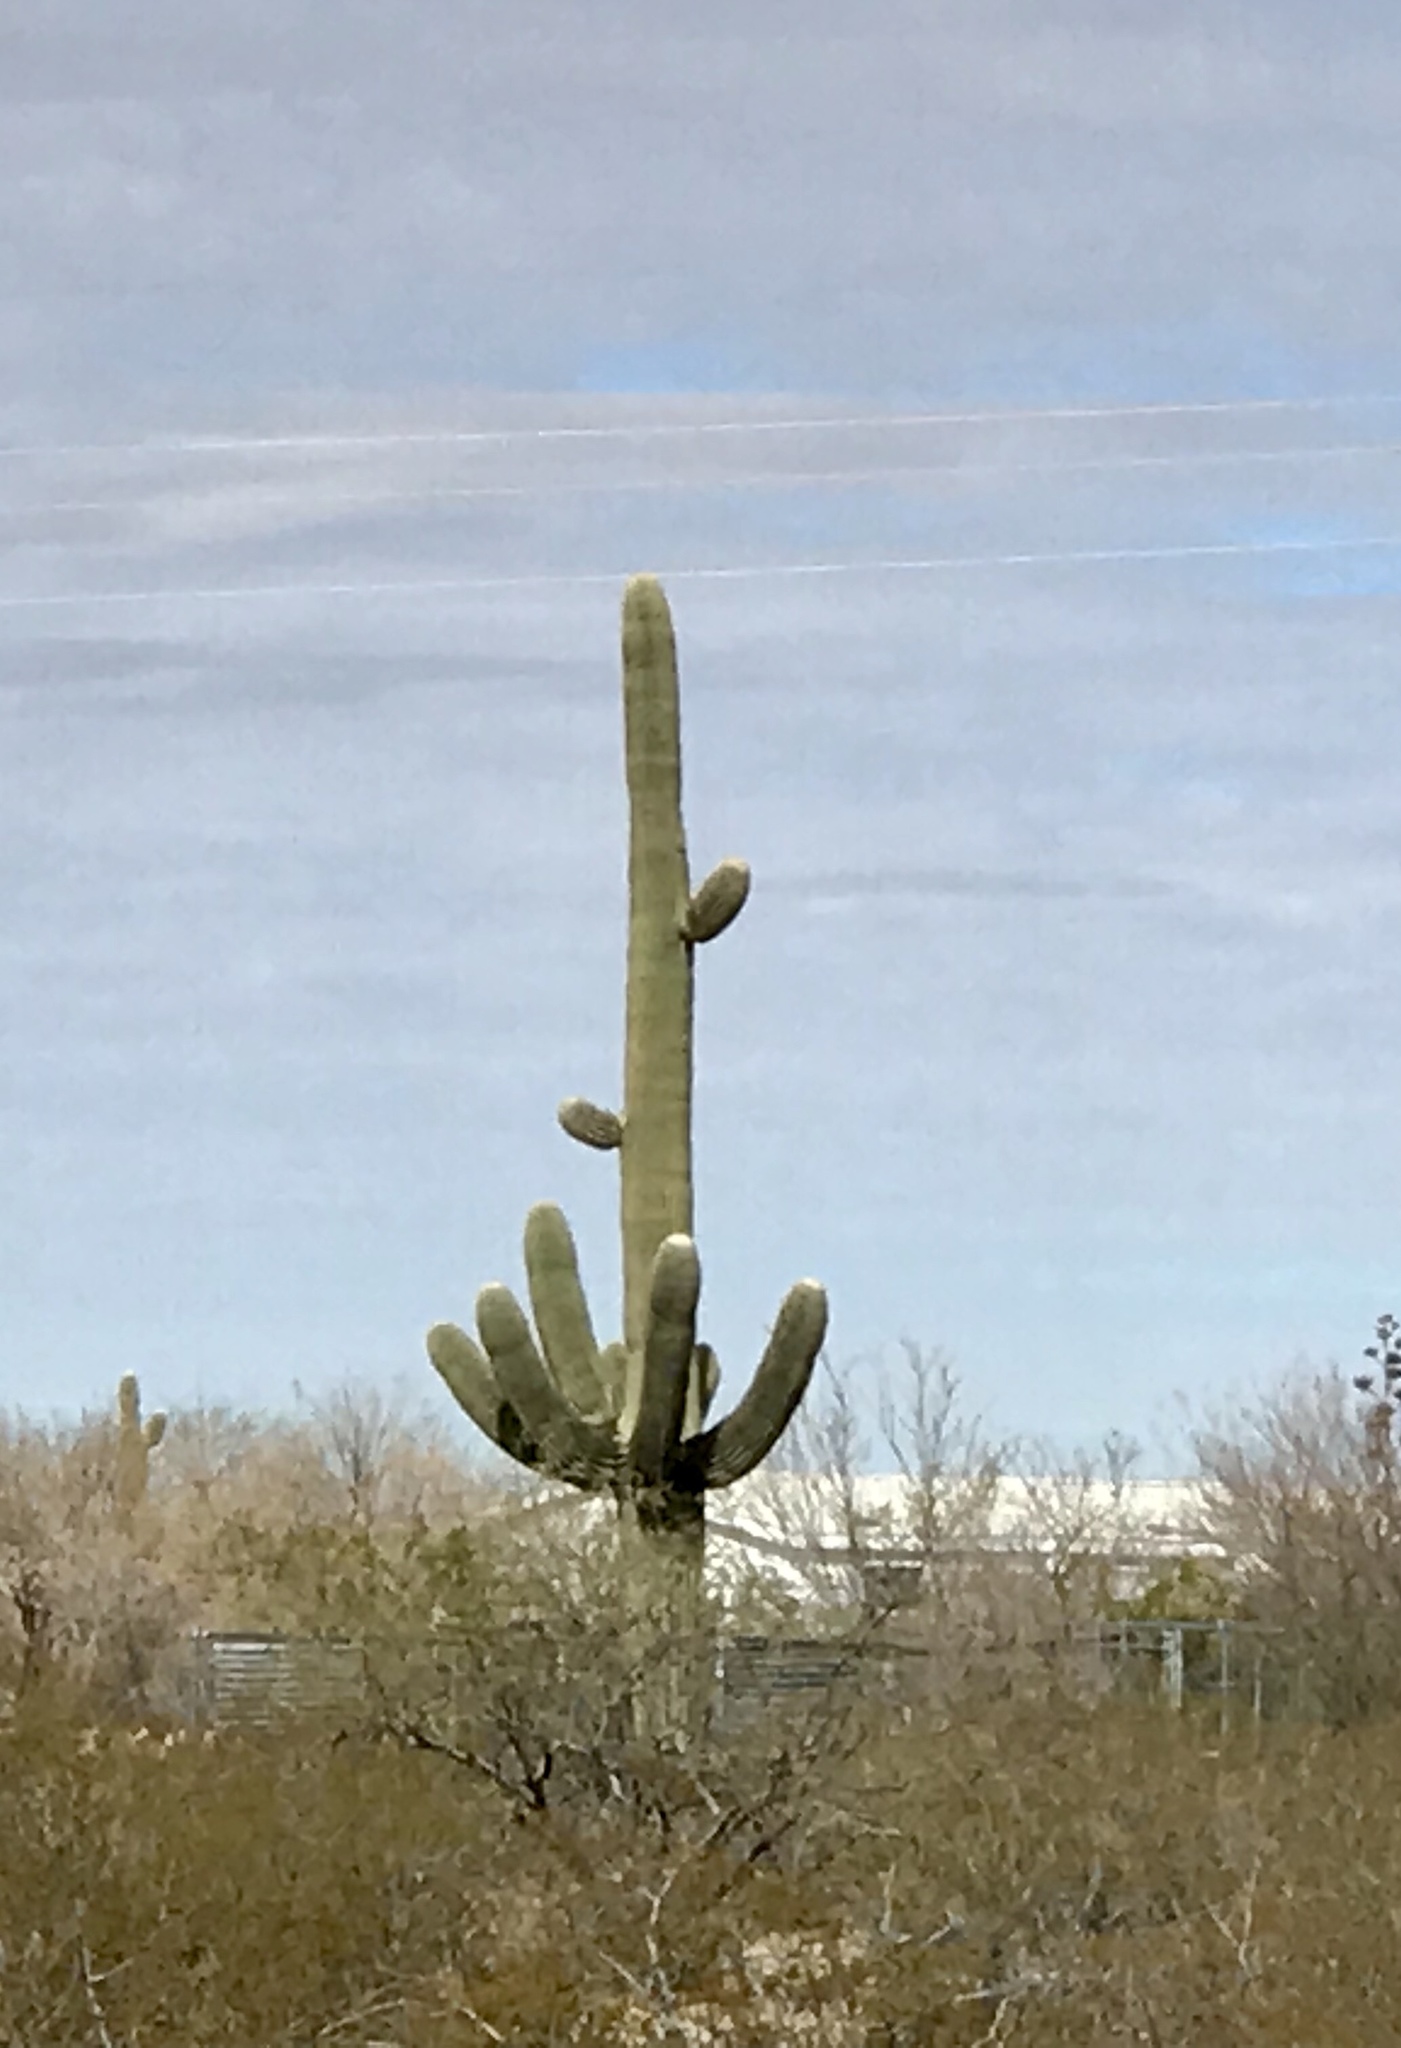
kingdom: Plantae
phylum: Tracheophyta
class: Magnoliopsida
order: Caryophyllales
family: Cactaceae
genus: Carnegiea
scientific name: Carnegiea gigantea
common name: Saguaro
